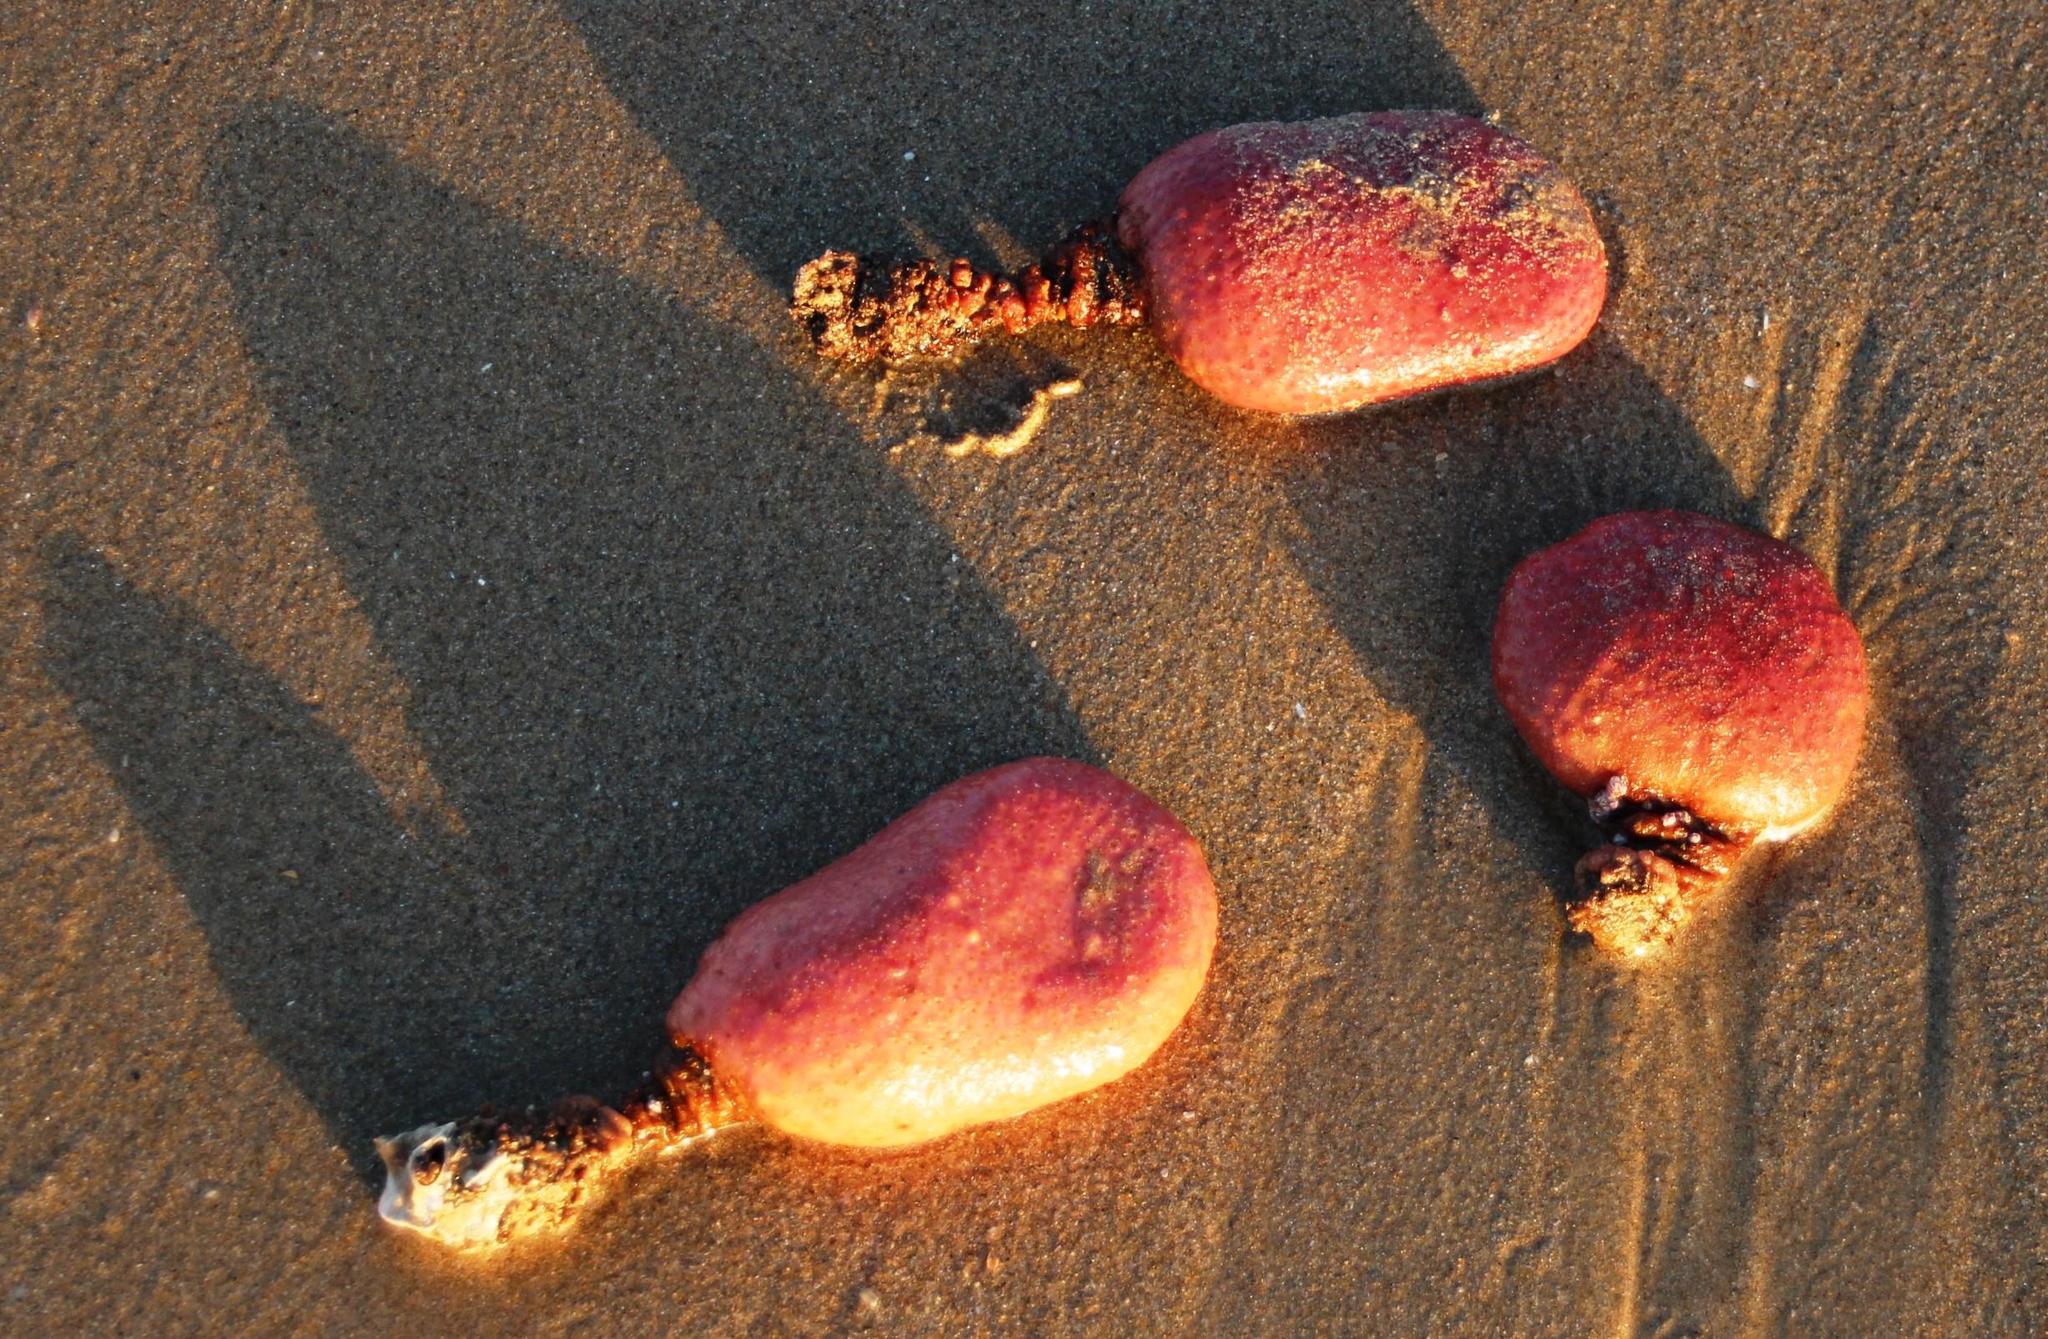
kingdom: Animalia
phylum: Chordata
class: Ascidiacea
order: Stolidobranchia
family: Styelidae
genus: Gynandrocarpa
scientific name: Gynandrocarpa placenta
